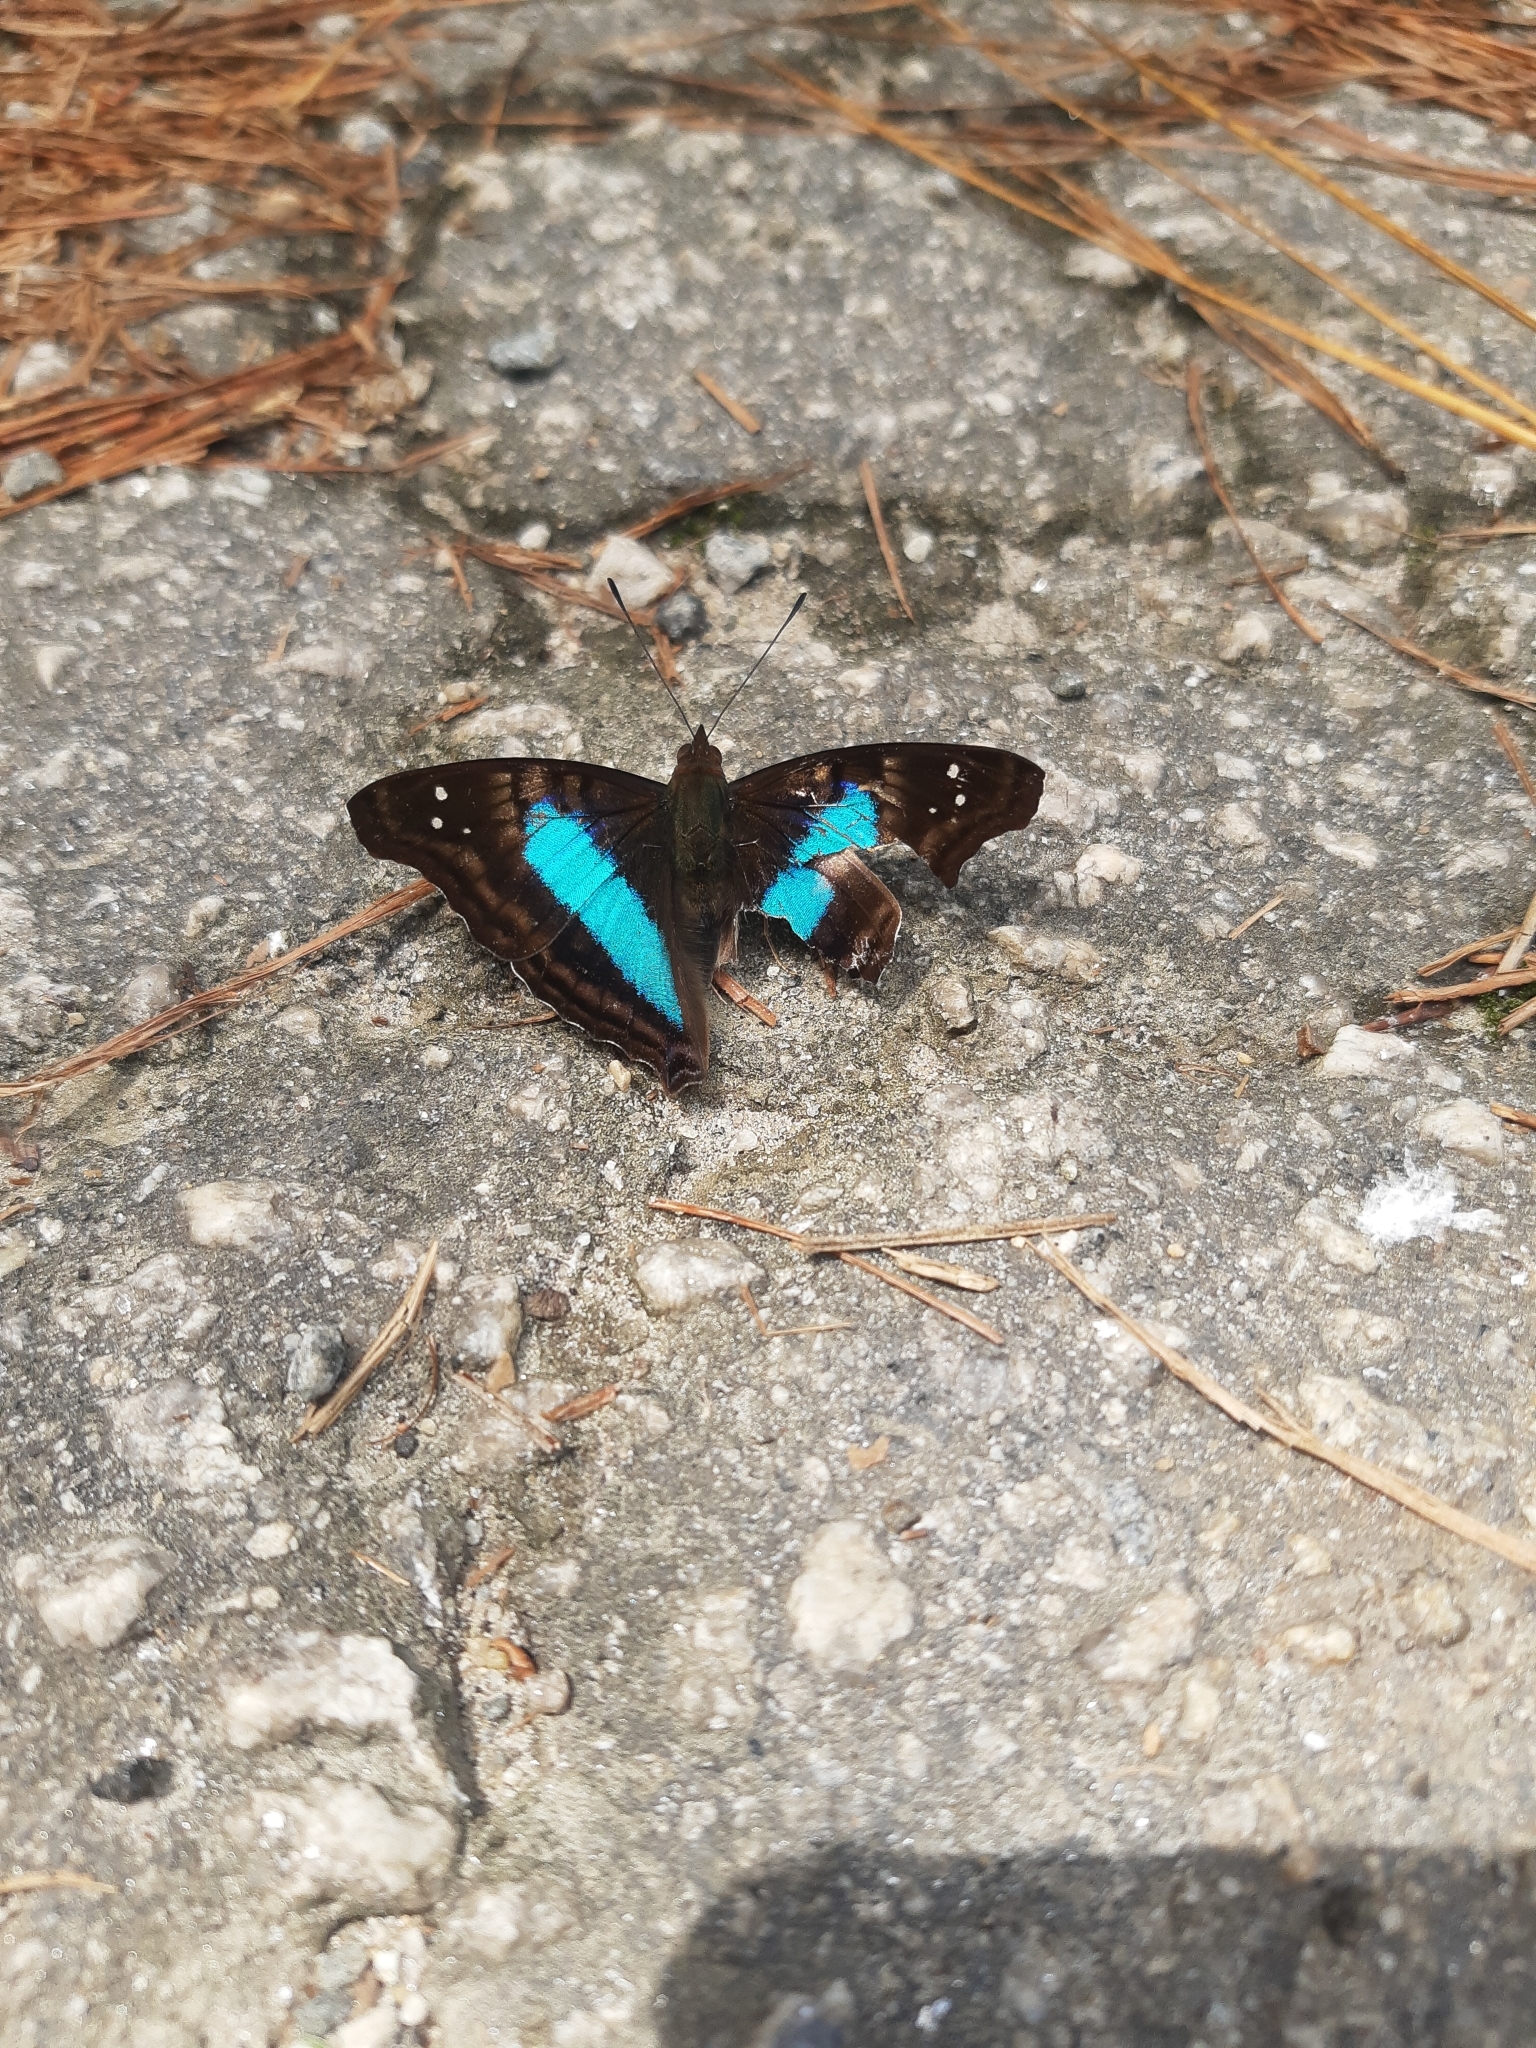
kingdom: Animalia
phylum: Arthropoda
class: Insecta
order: Lepidoptera
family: Nymphalidae
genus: Doxocopa
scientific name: Doxocopa laurentia
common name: Turquoise emperor
